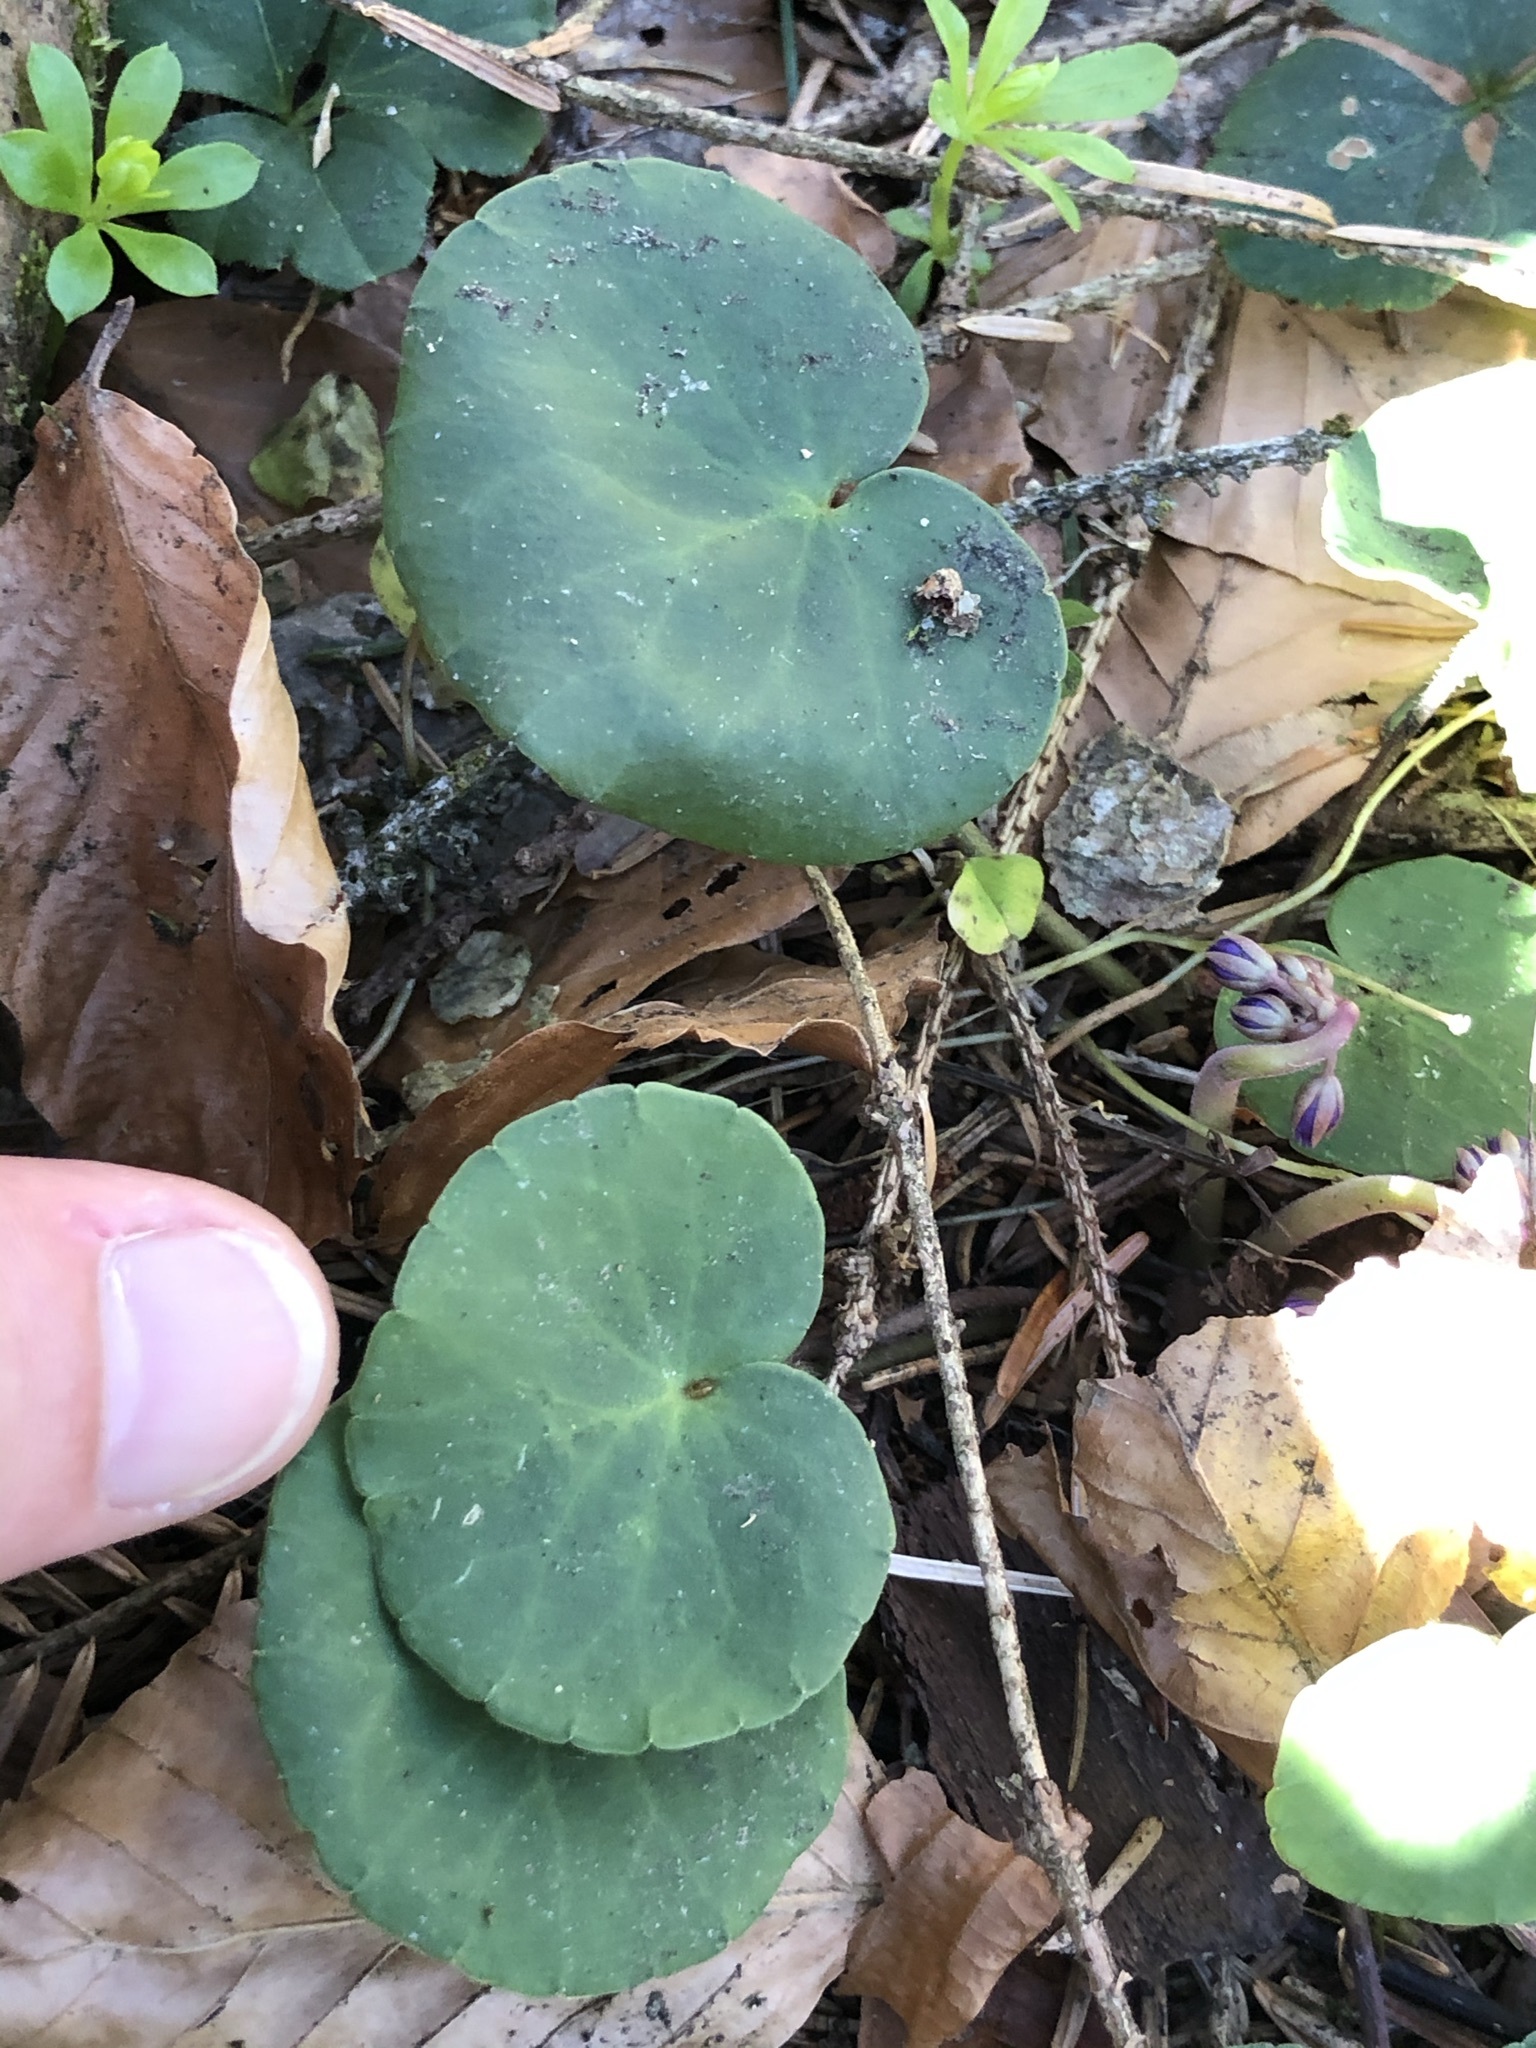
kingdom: Plantae
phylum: Tracheophyta
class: Magnoliopsida
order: Ericales
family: Primulaceae
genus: Soldanella
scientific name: Soldanella montana
